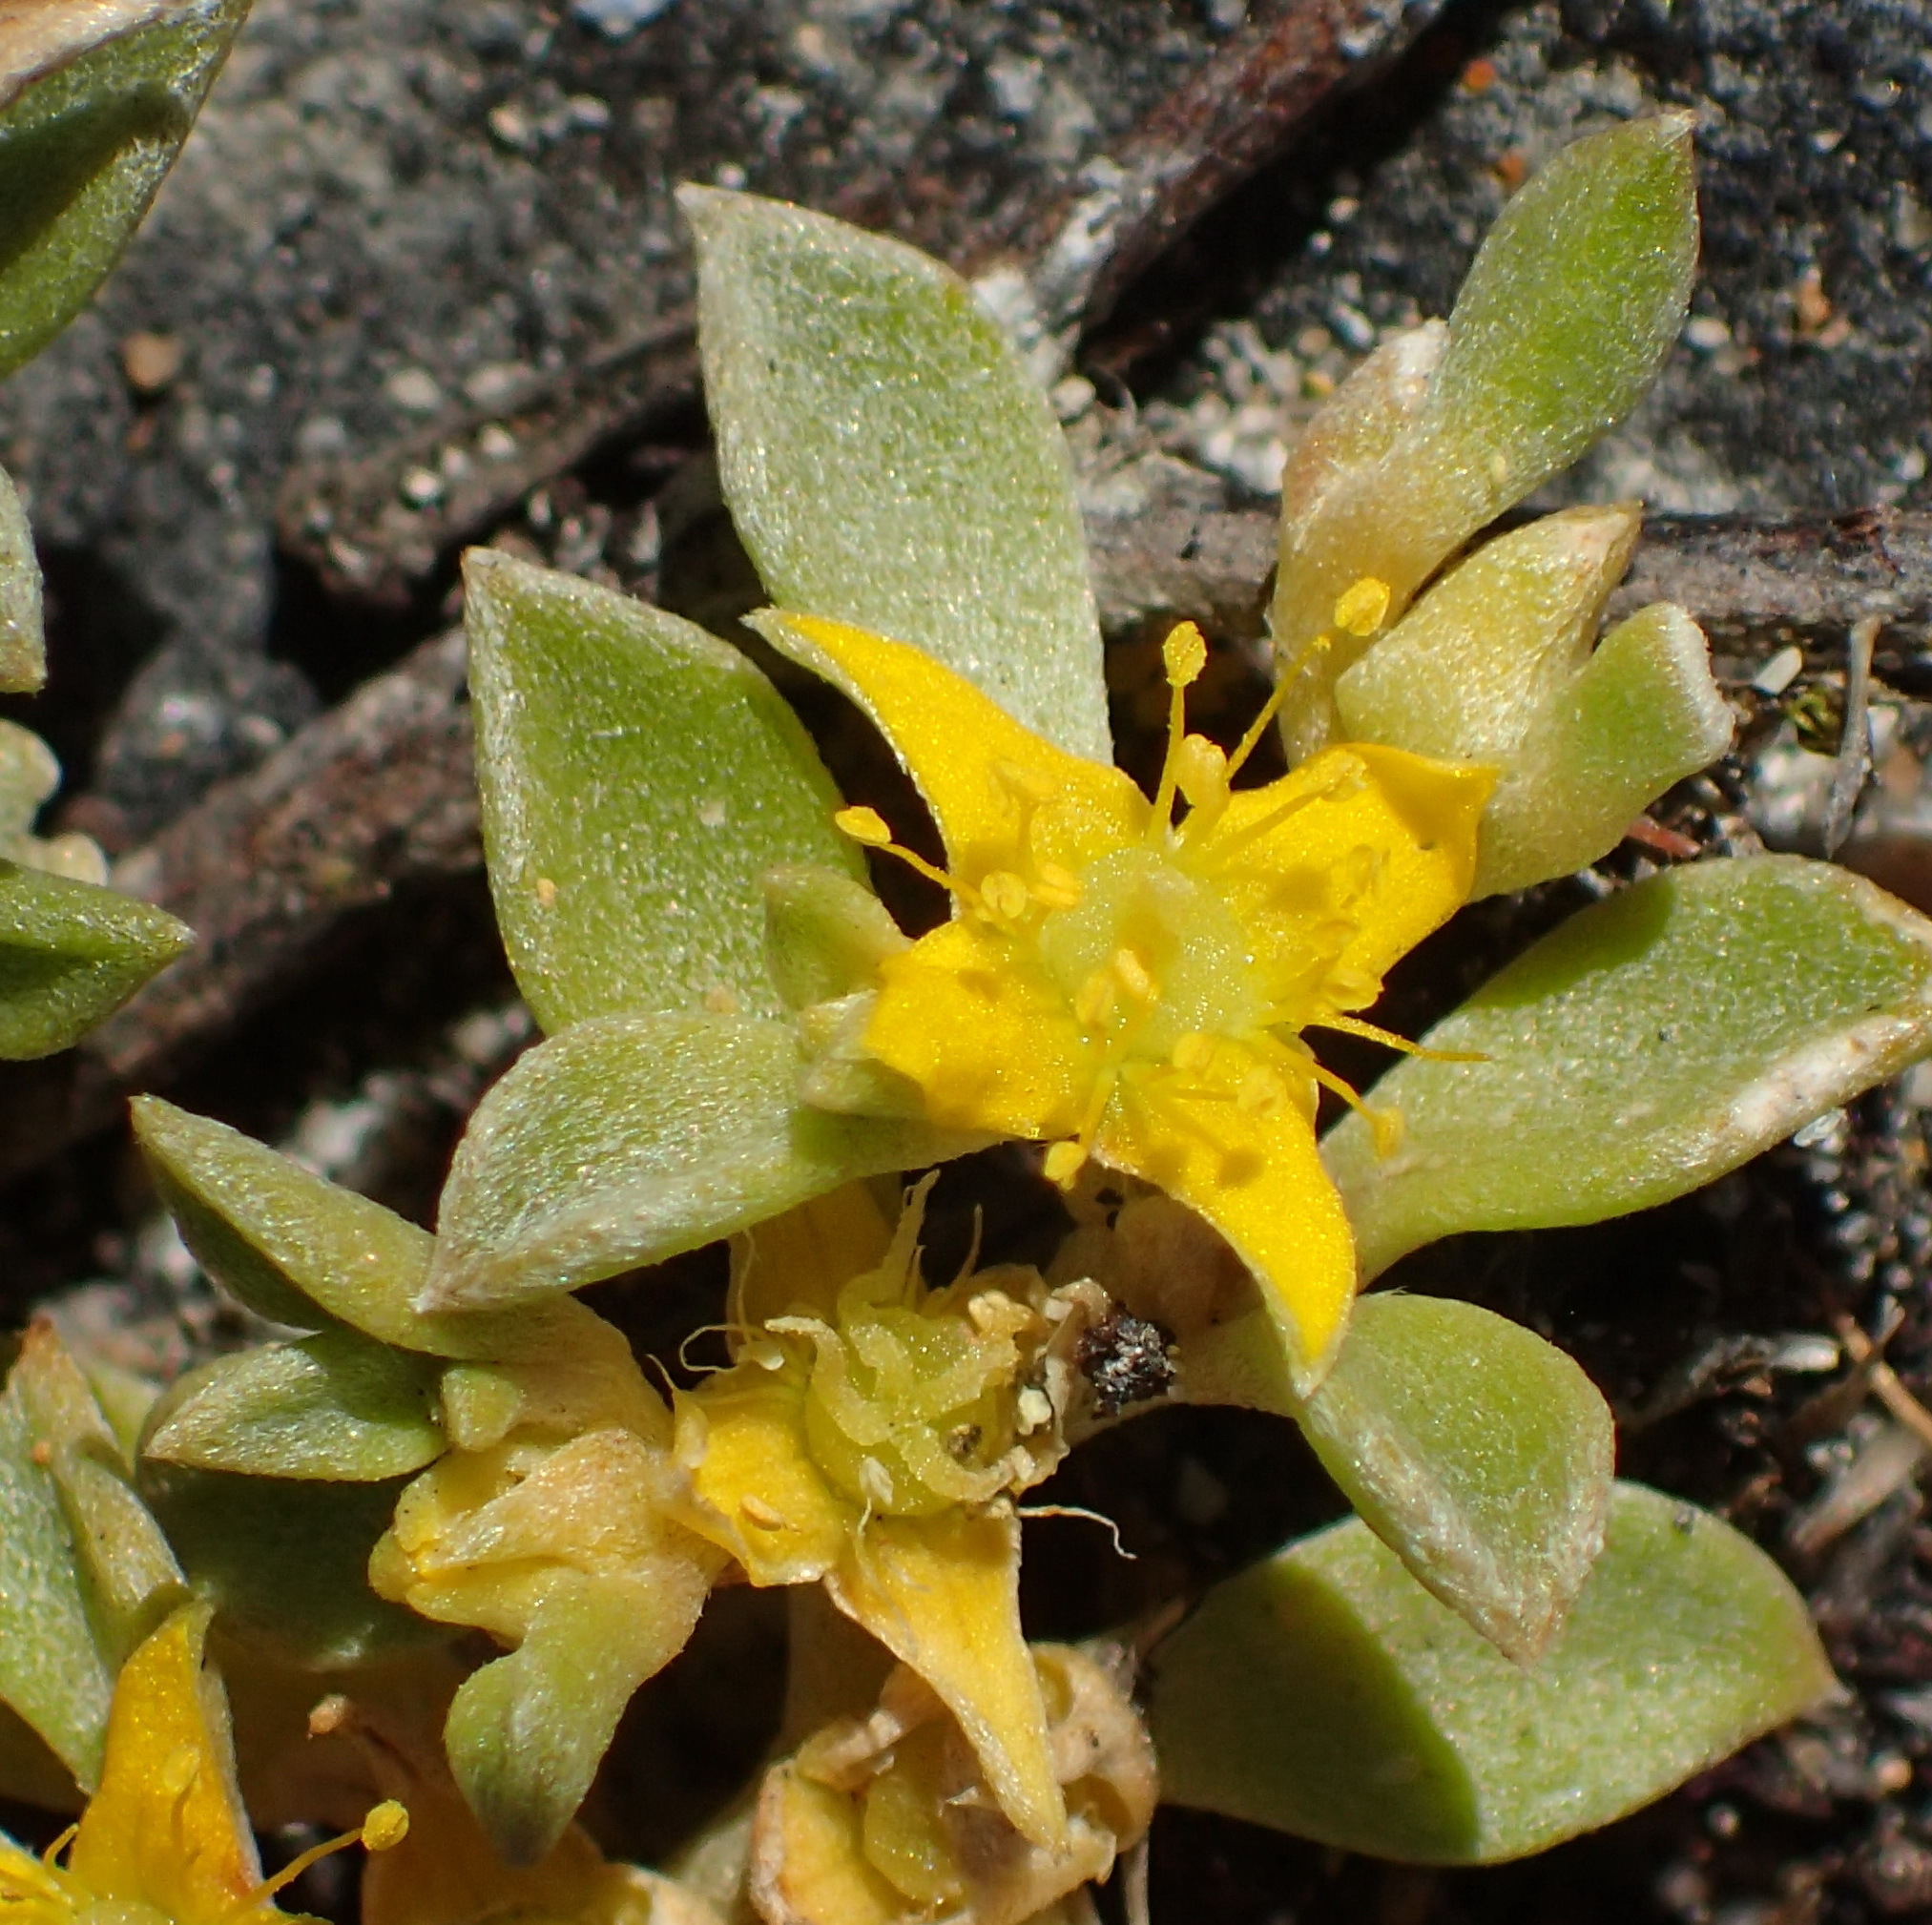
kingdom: Plantae
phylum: Tracheophyta
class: Magnoliopsida
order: Caryophyllales
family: Aizoaceae
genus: Aizoon
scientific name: Aizoon rigidum
